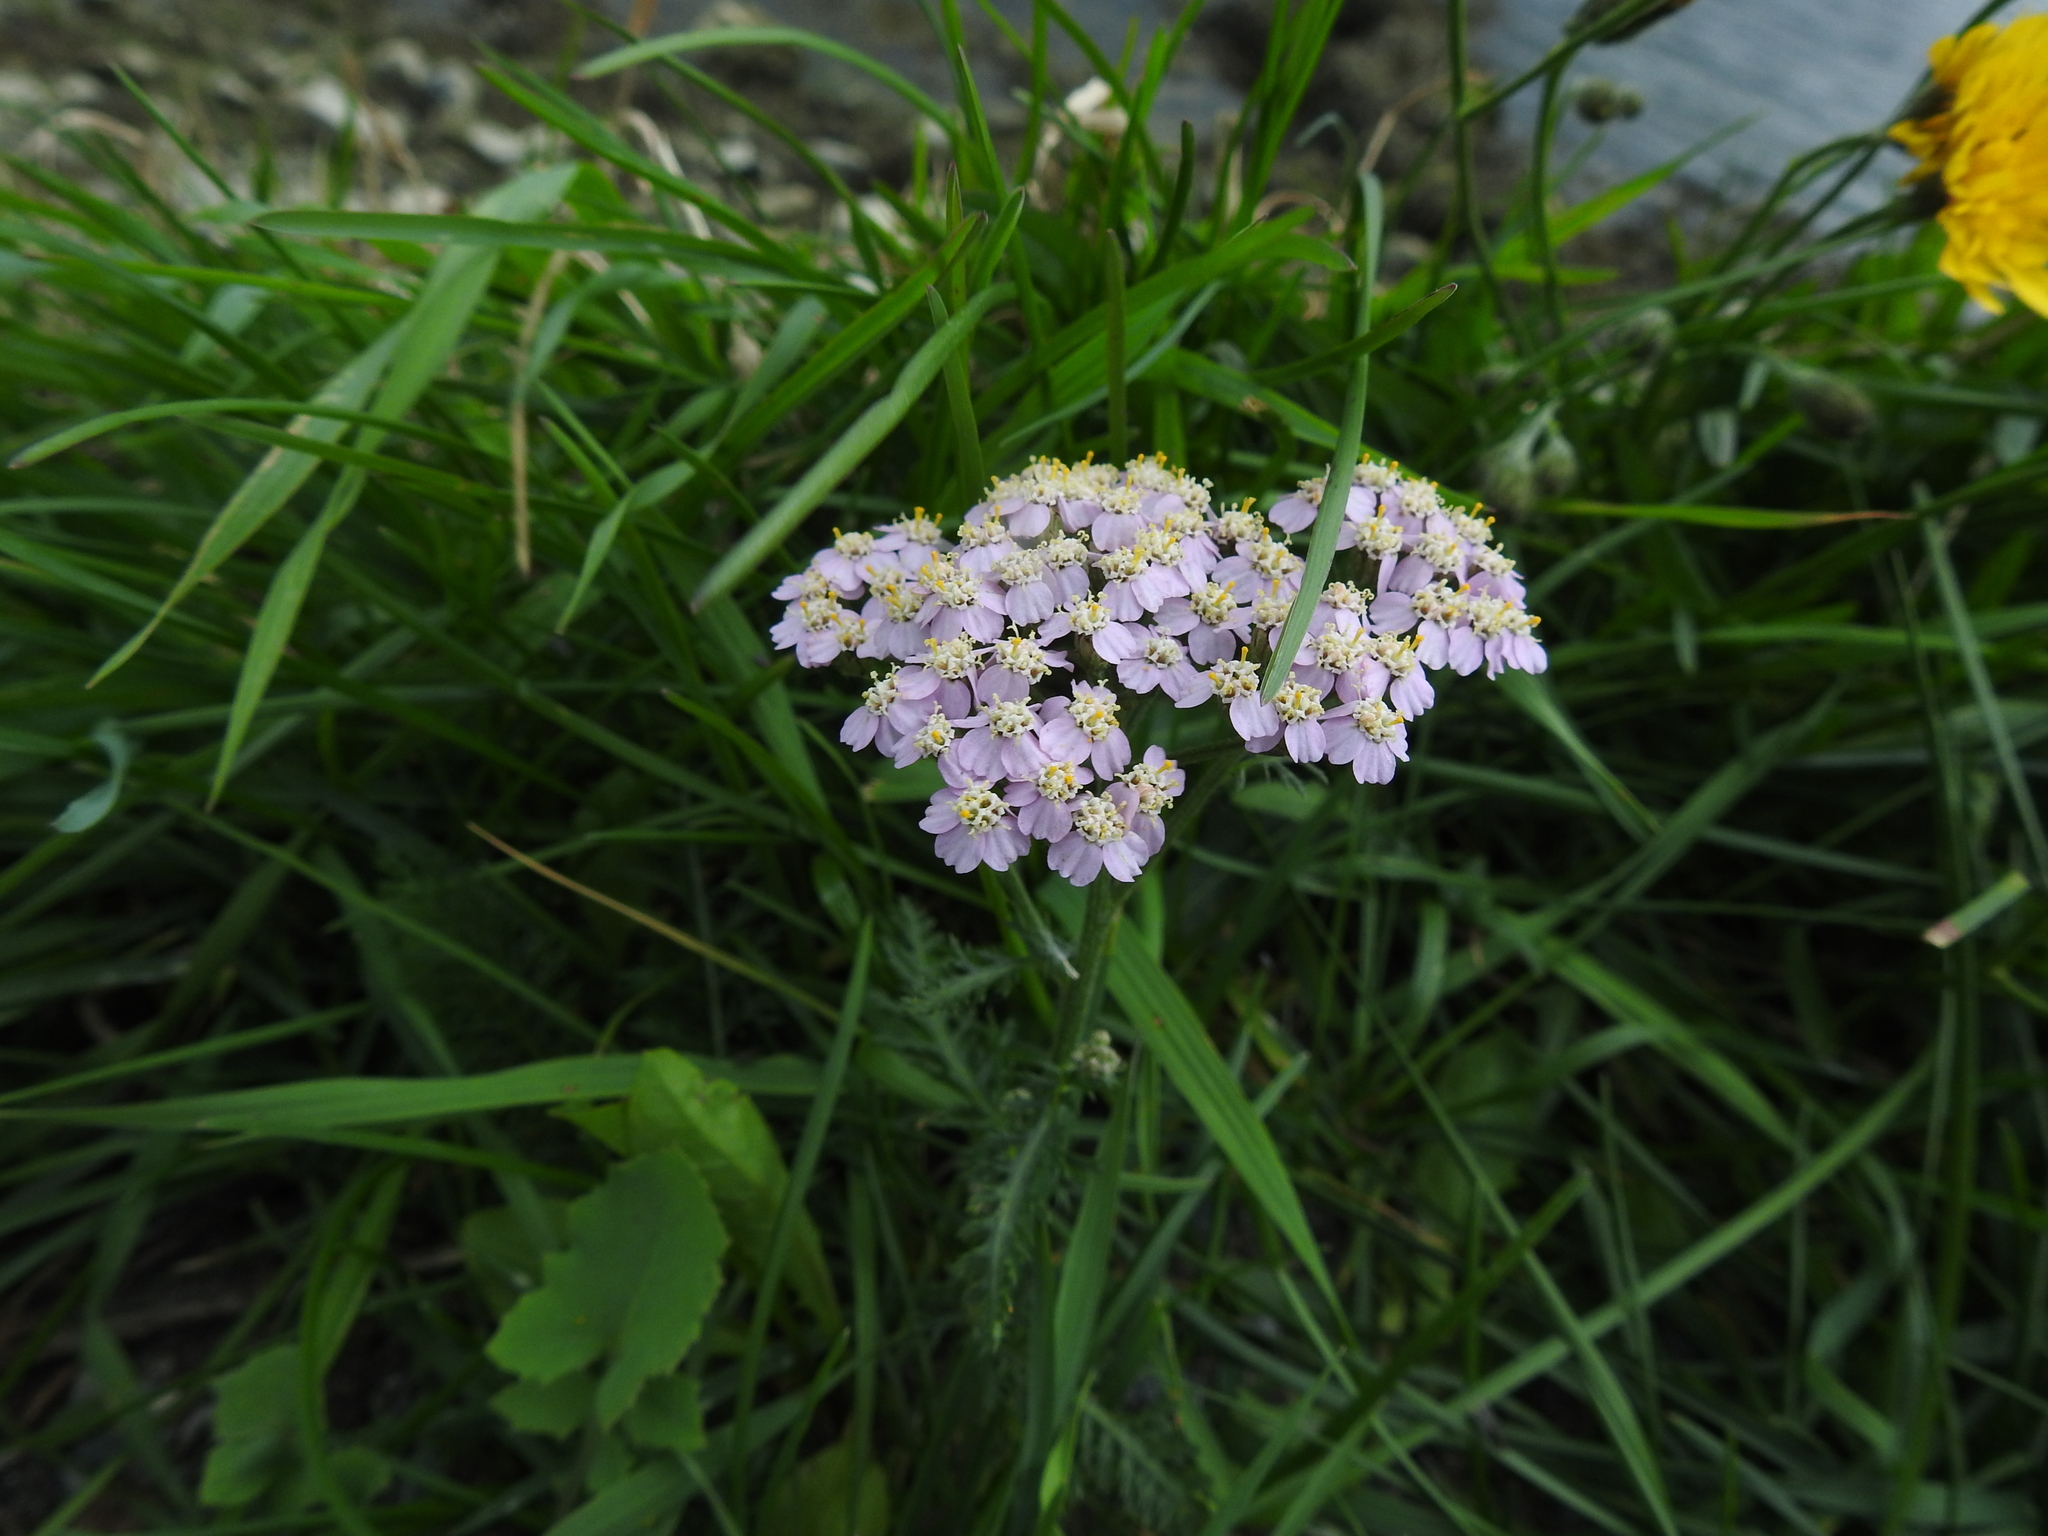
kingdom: Plantae
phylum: Tracheophyta
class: Magnoliopsida
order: Asterales
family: Asteraceae
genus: Achillea
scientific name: Achillea millefolium
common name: Yarrow
